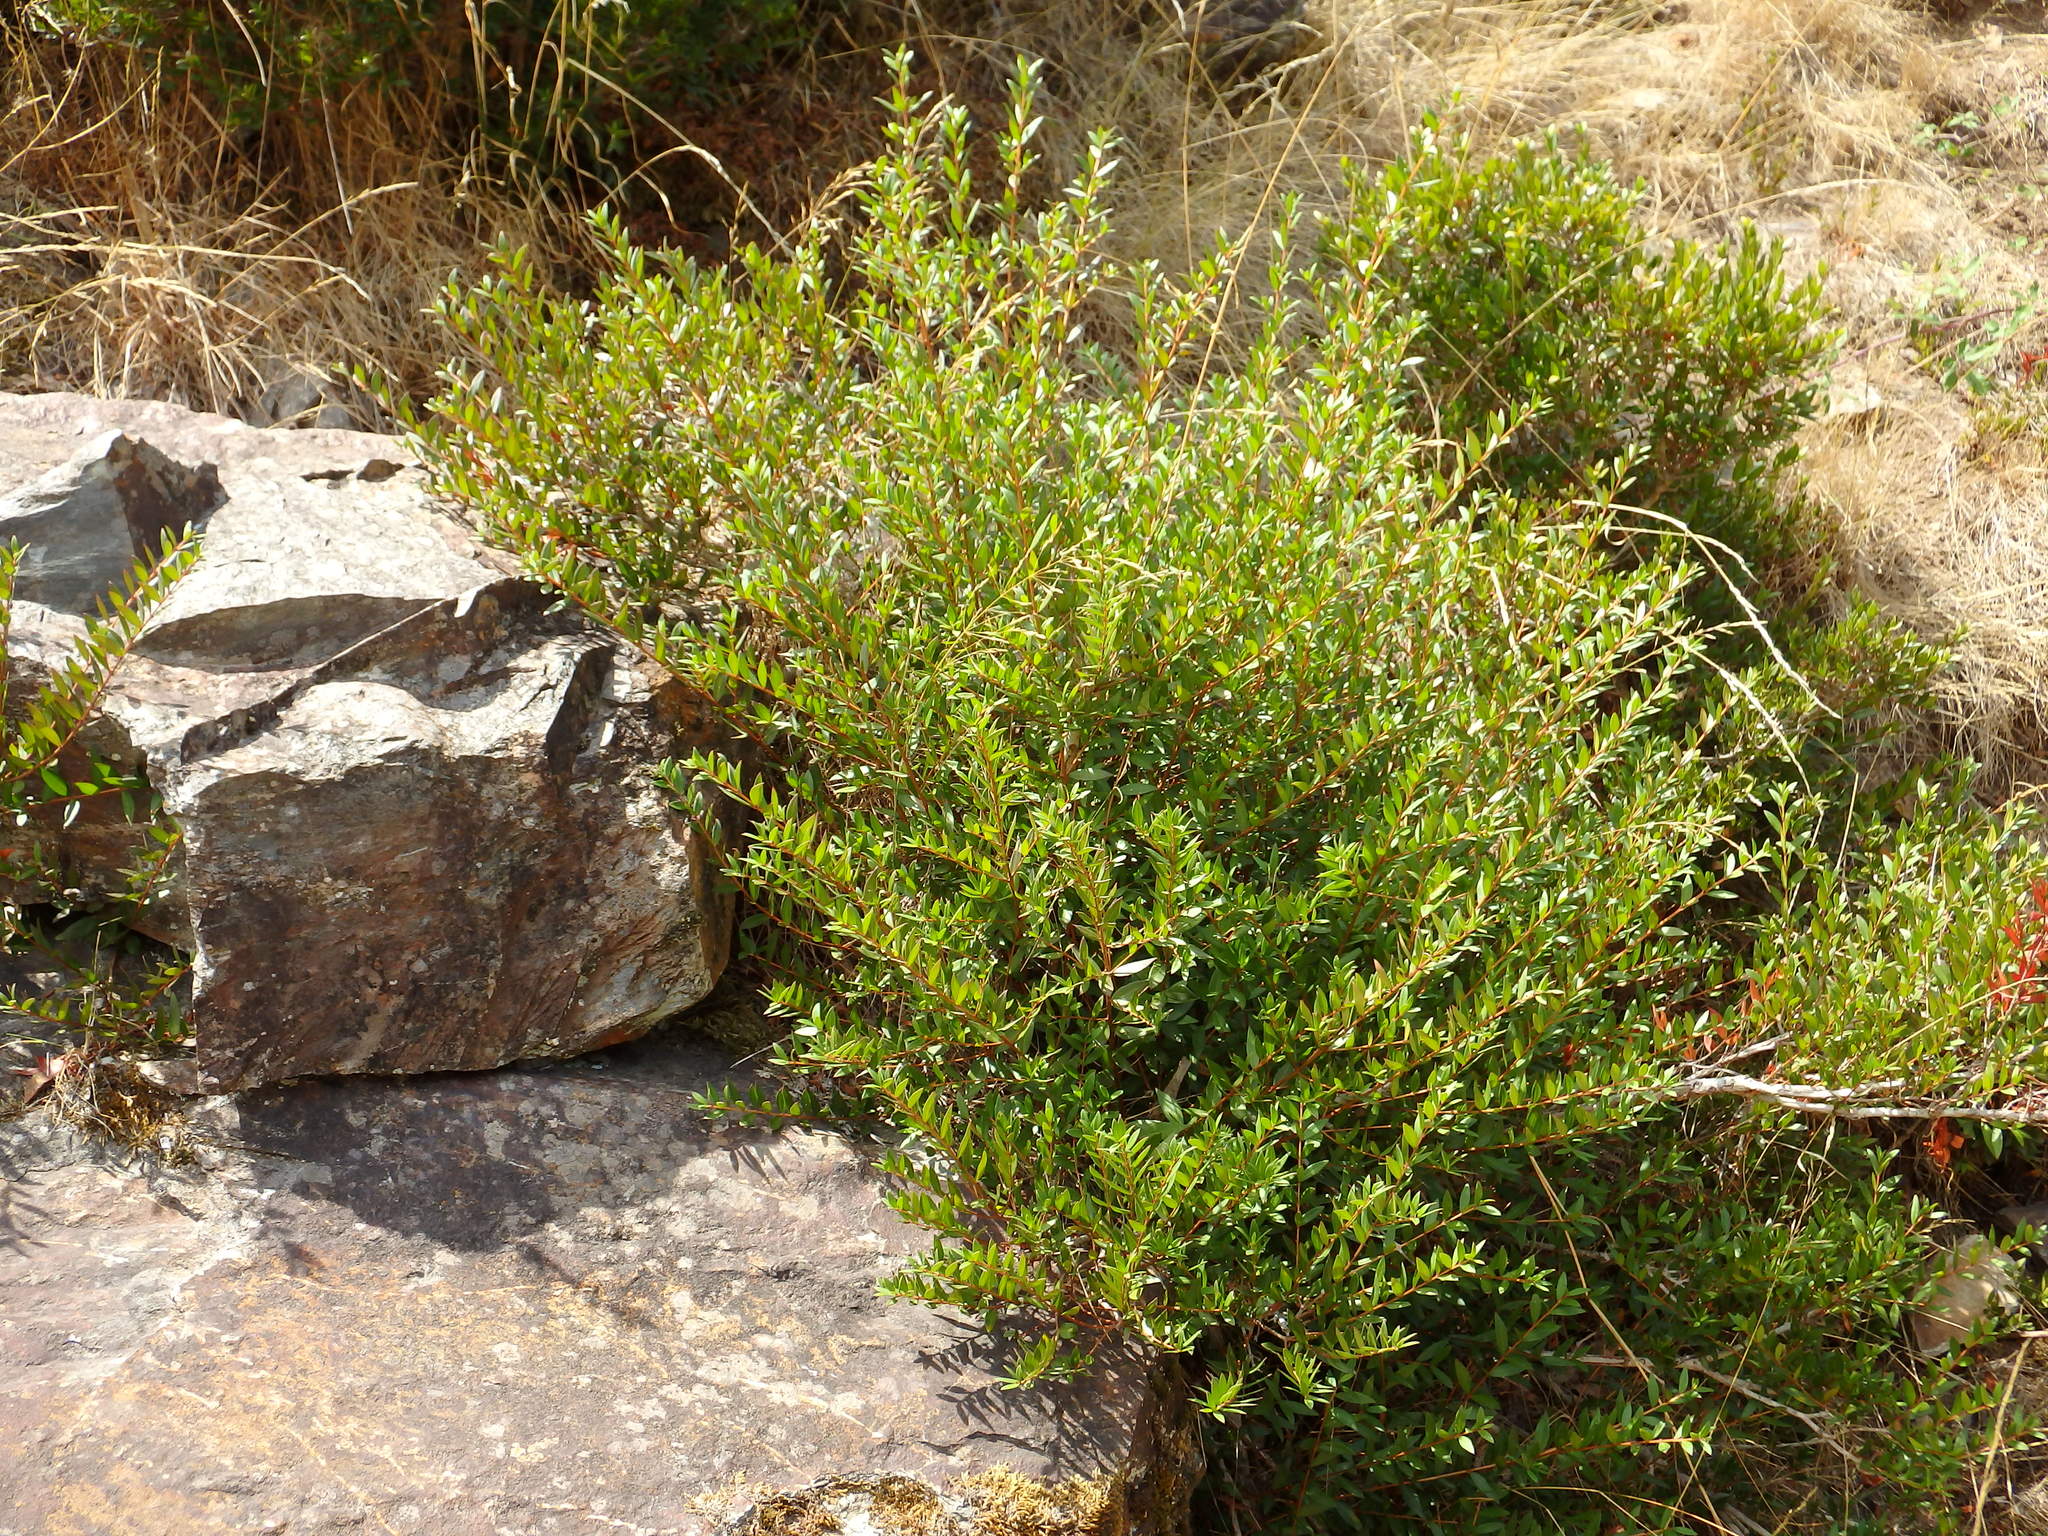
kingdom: Plantae
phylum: Tracheophyta
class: Magnoliopsida
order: Myrtales
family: Myrtaceae
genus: Myrtus
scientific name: Myrtus communis
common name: Myrtle
